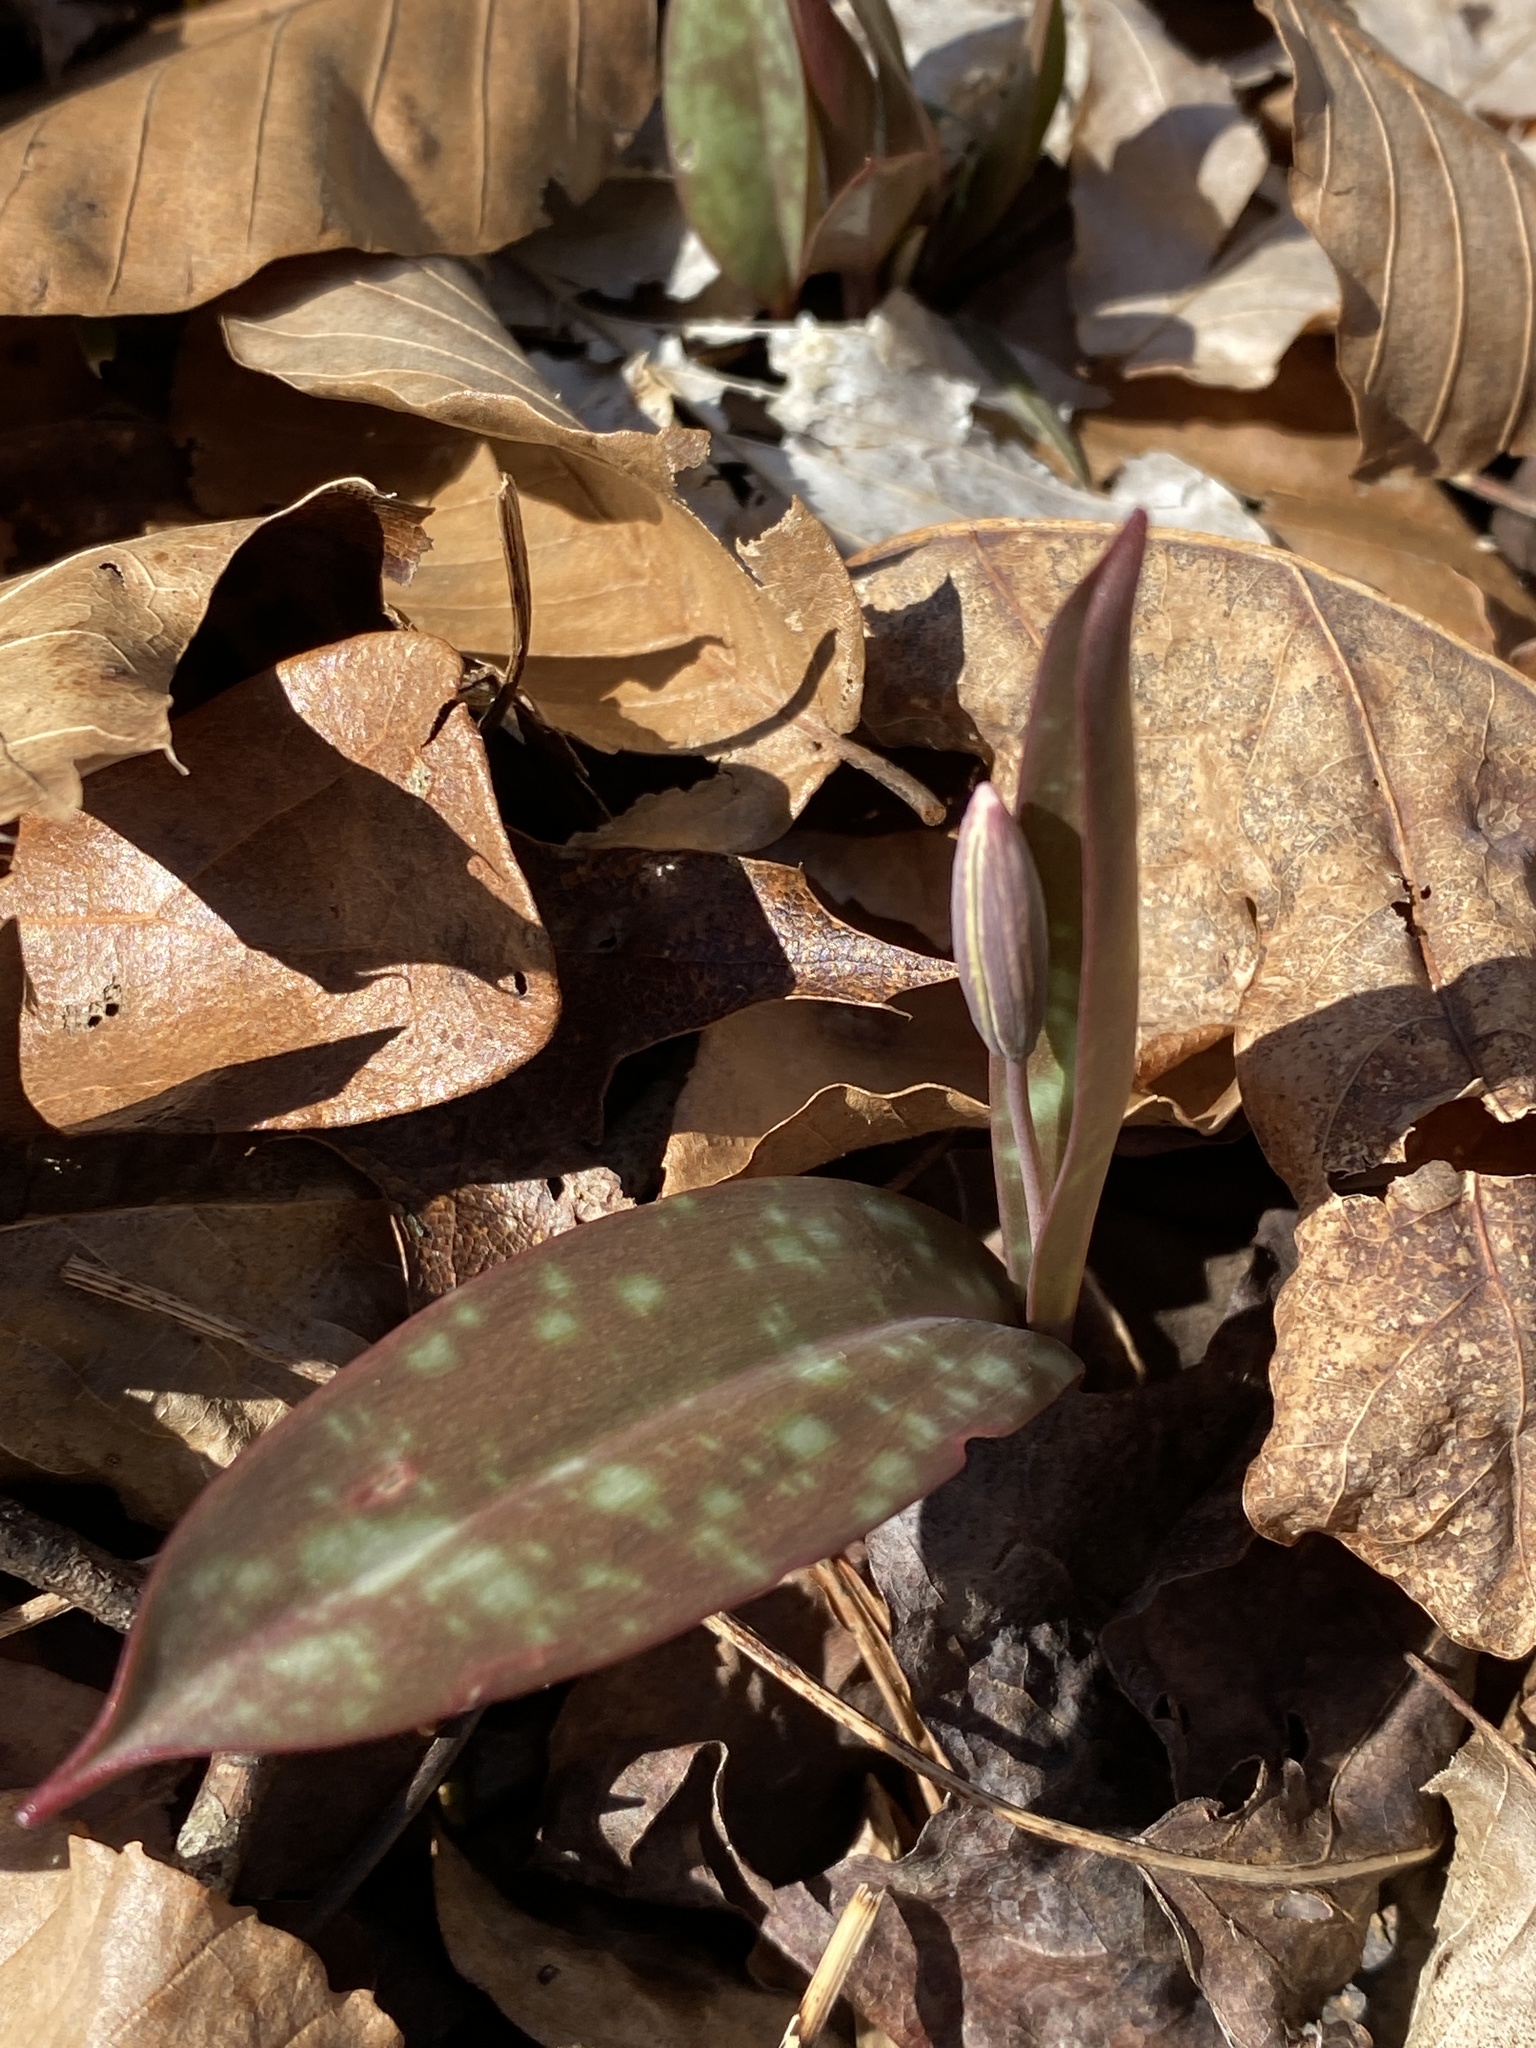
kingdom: Plantae
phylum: Tracheophyta
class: Liliopsida
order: Liliales
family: Liliaceae
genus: Erythronium
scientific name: Erythronium umbilicatum
